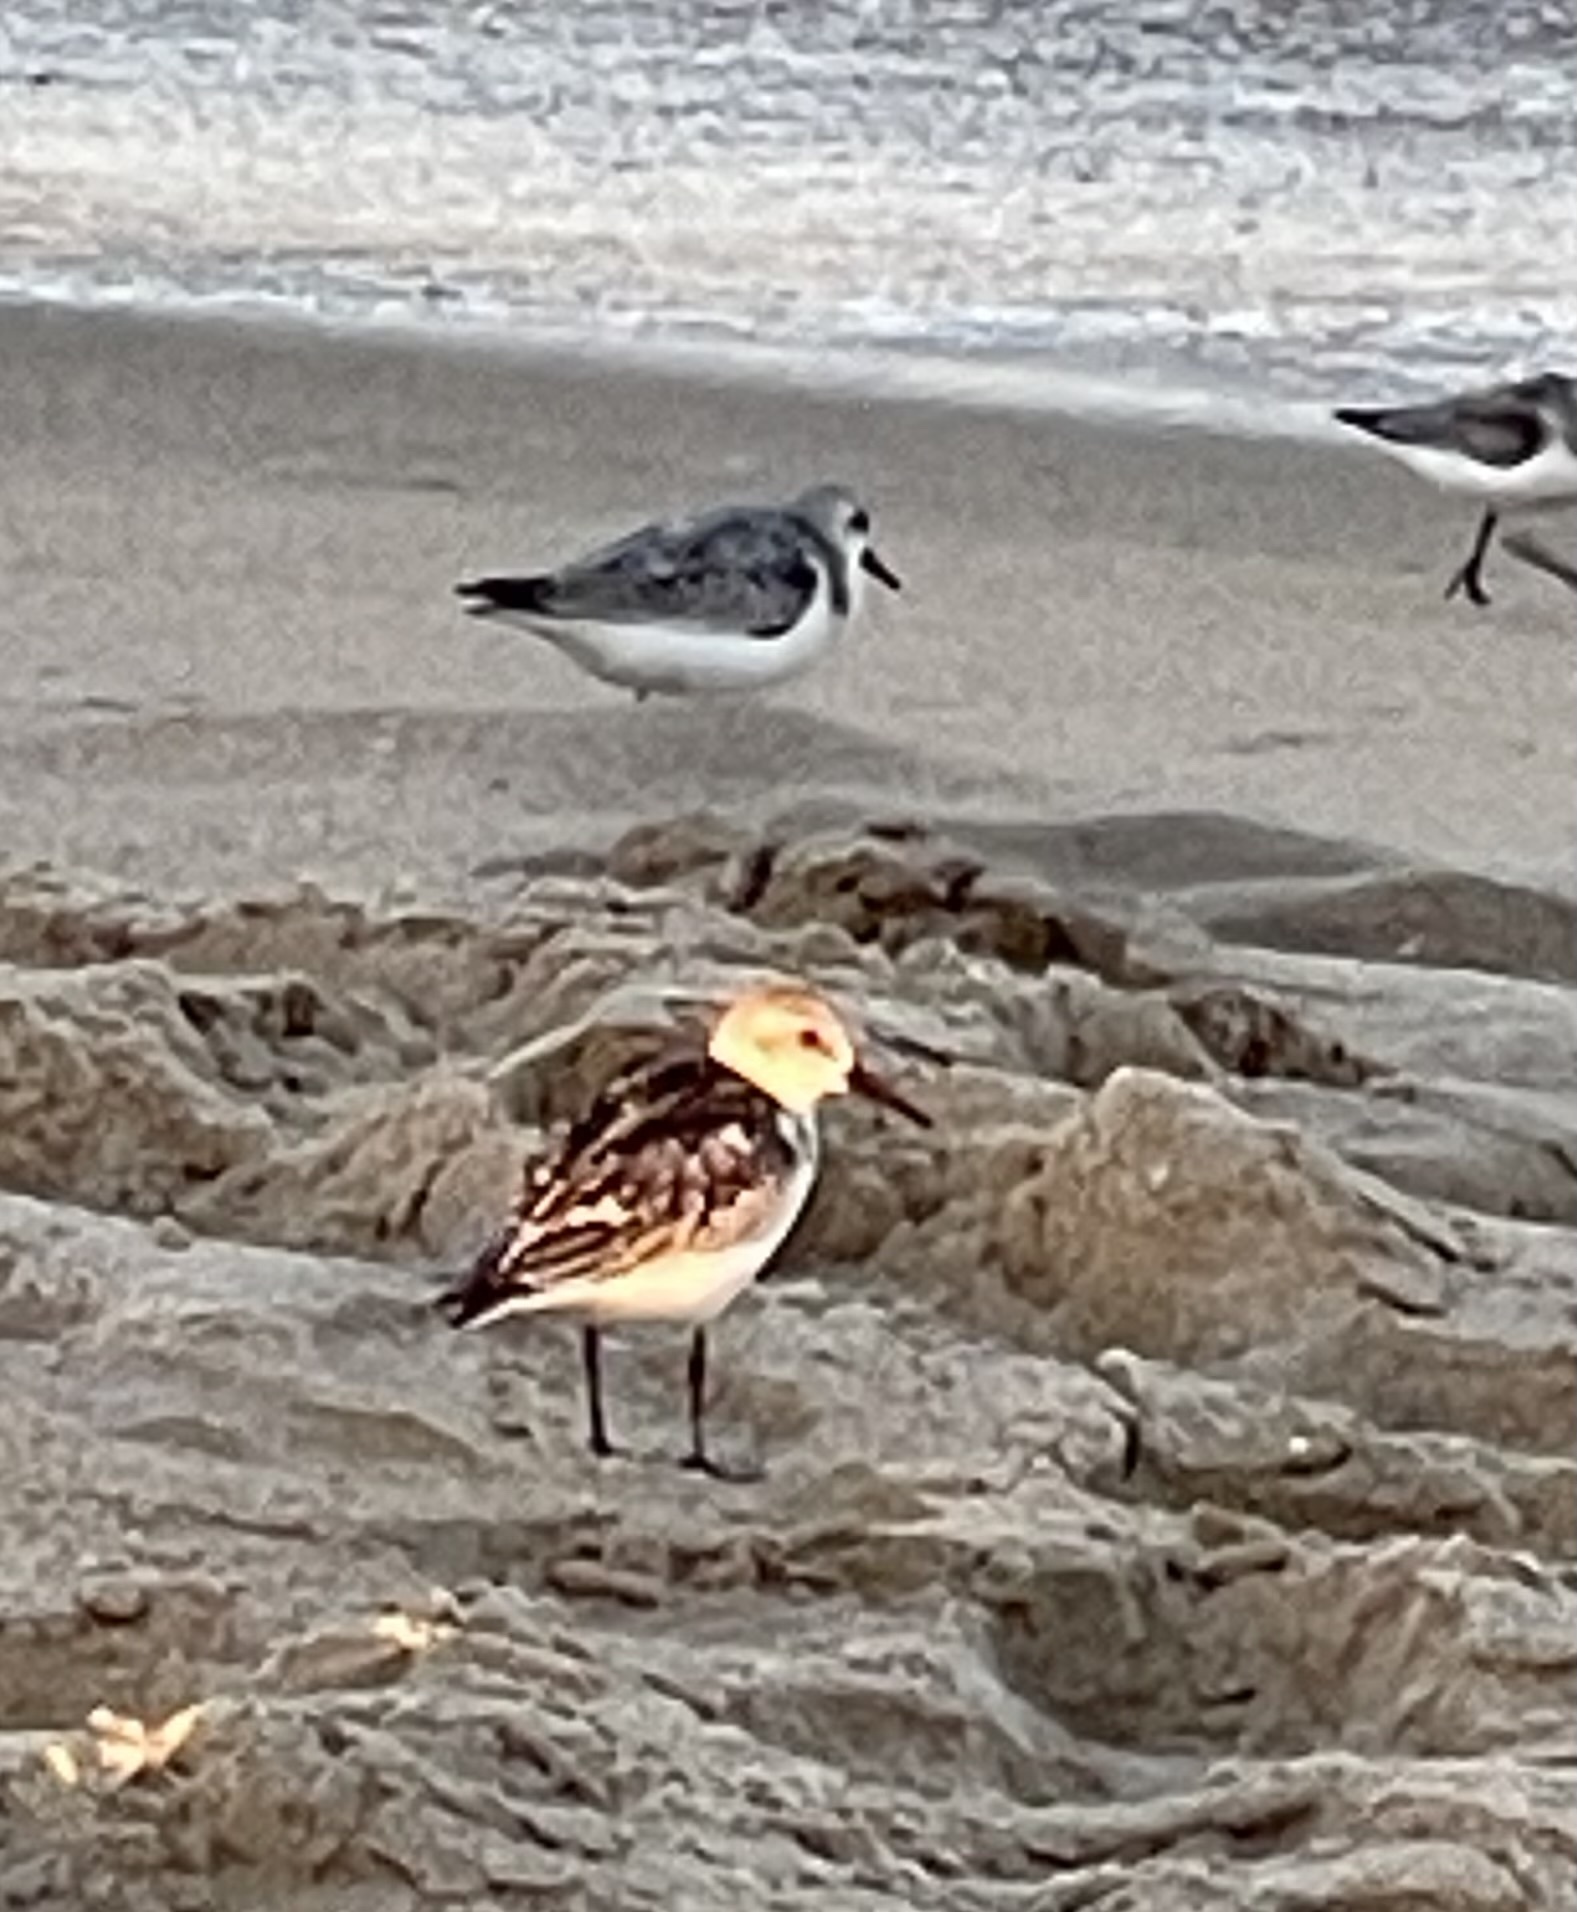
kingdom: Animalia
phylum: Chordata
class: Aves
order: Charadriiformes
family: Scolopacidae
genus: Calidris
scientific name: Calidris alba
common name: Sanderling
